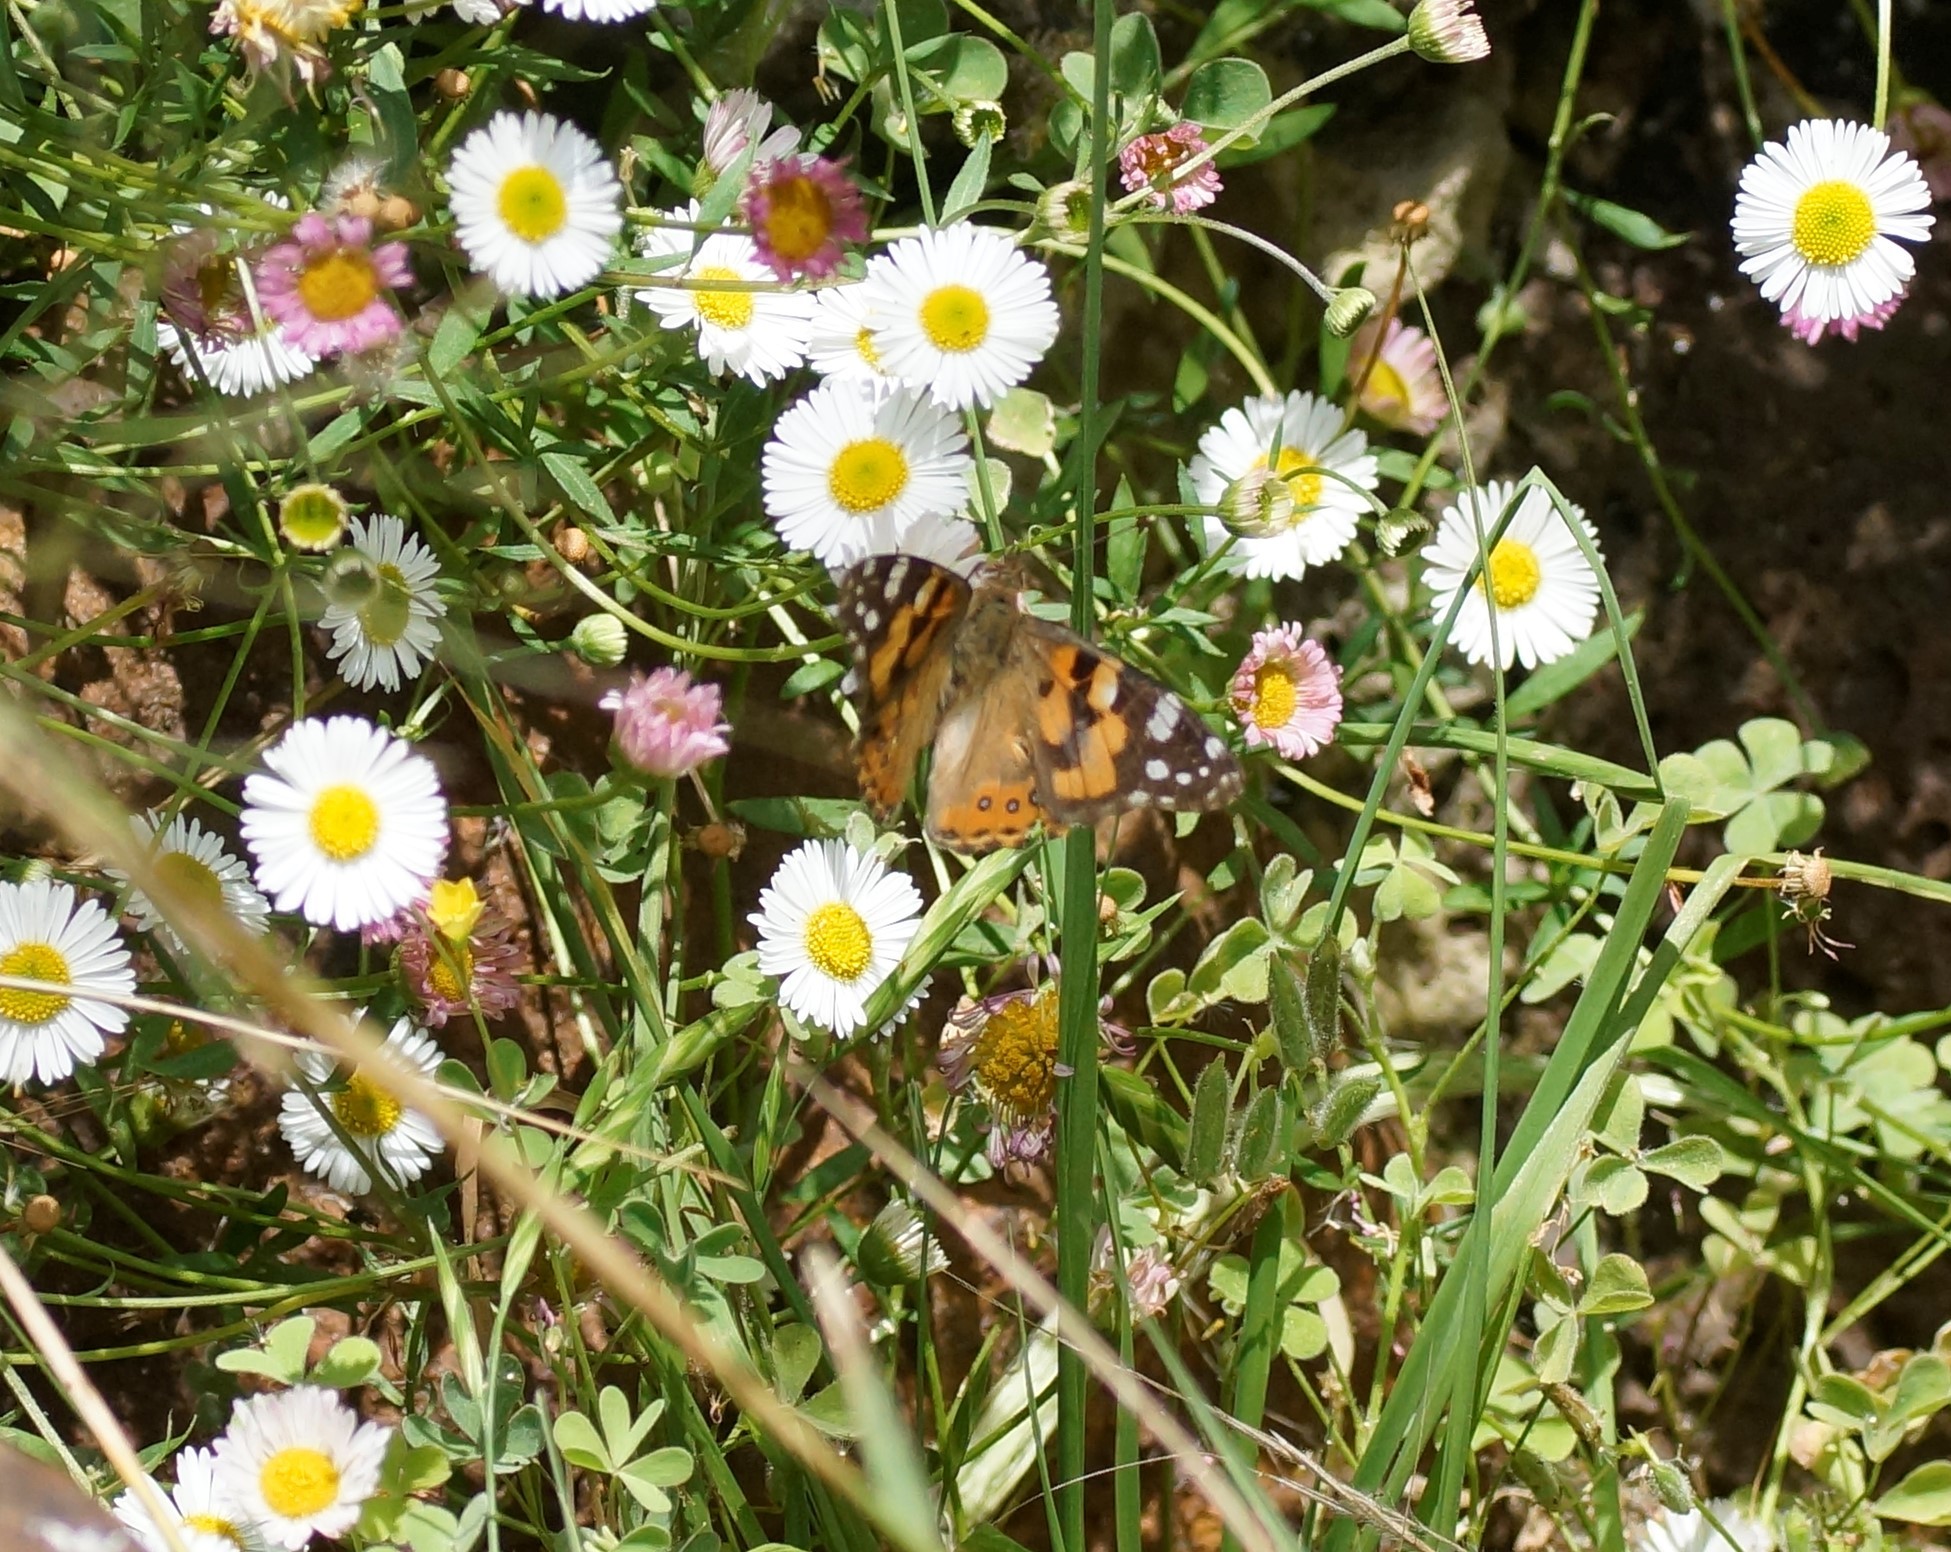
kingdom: Animalia
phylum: Arthropoda
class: Insecta
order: Lepidoptera
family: Nymphalidae
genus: Vanessa
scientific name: Vanessa kershawi
